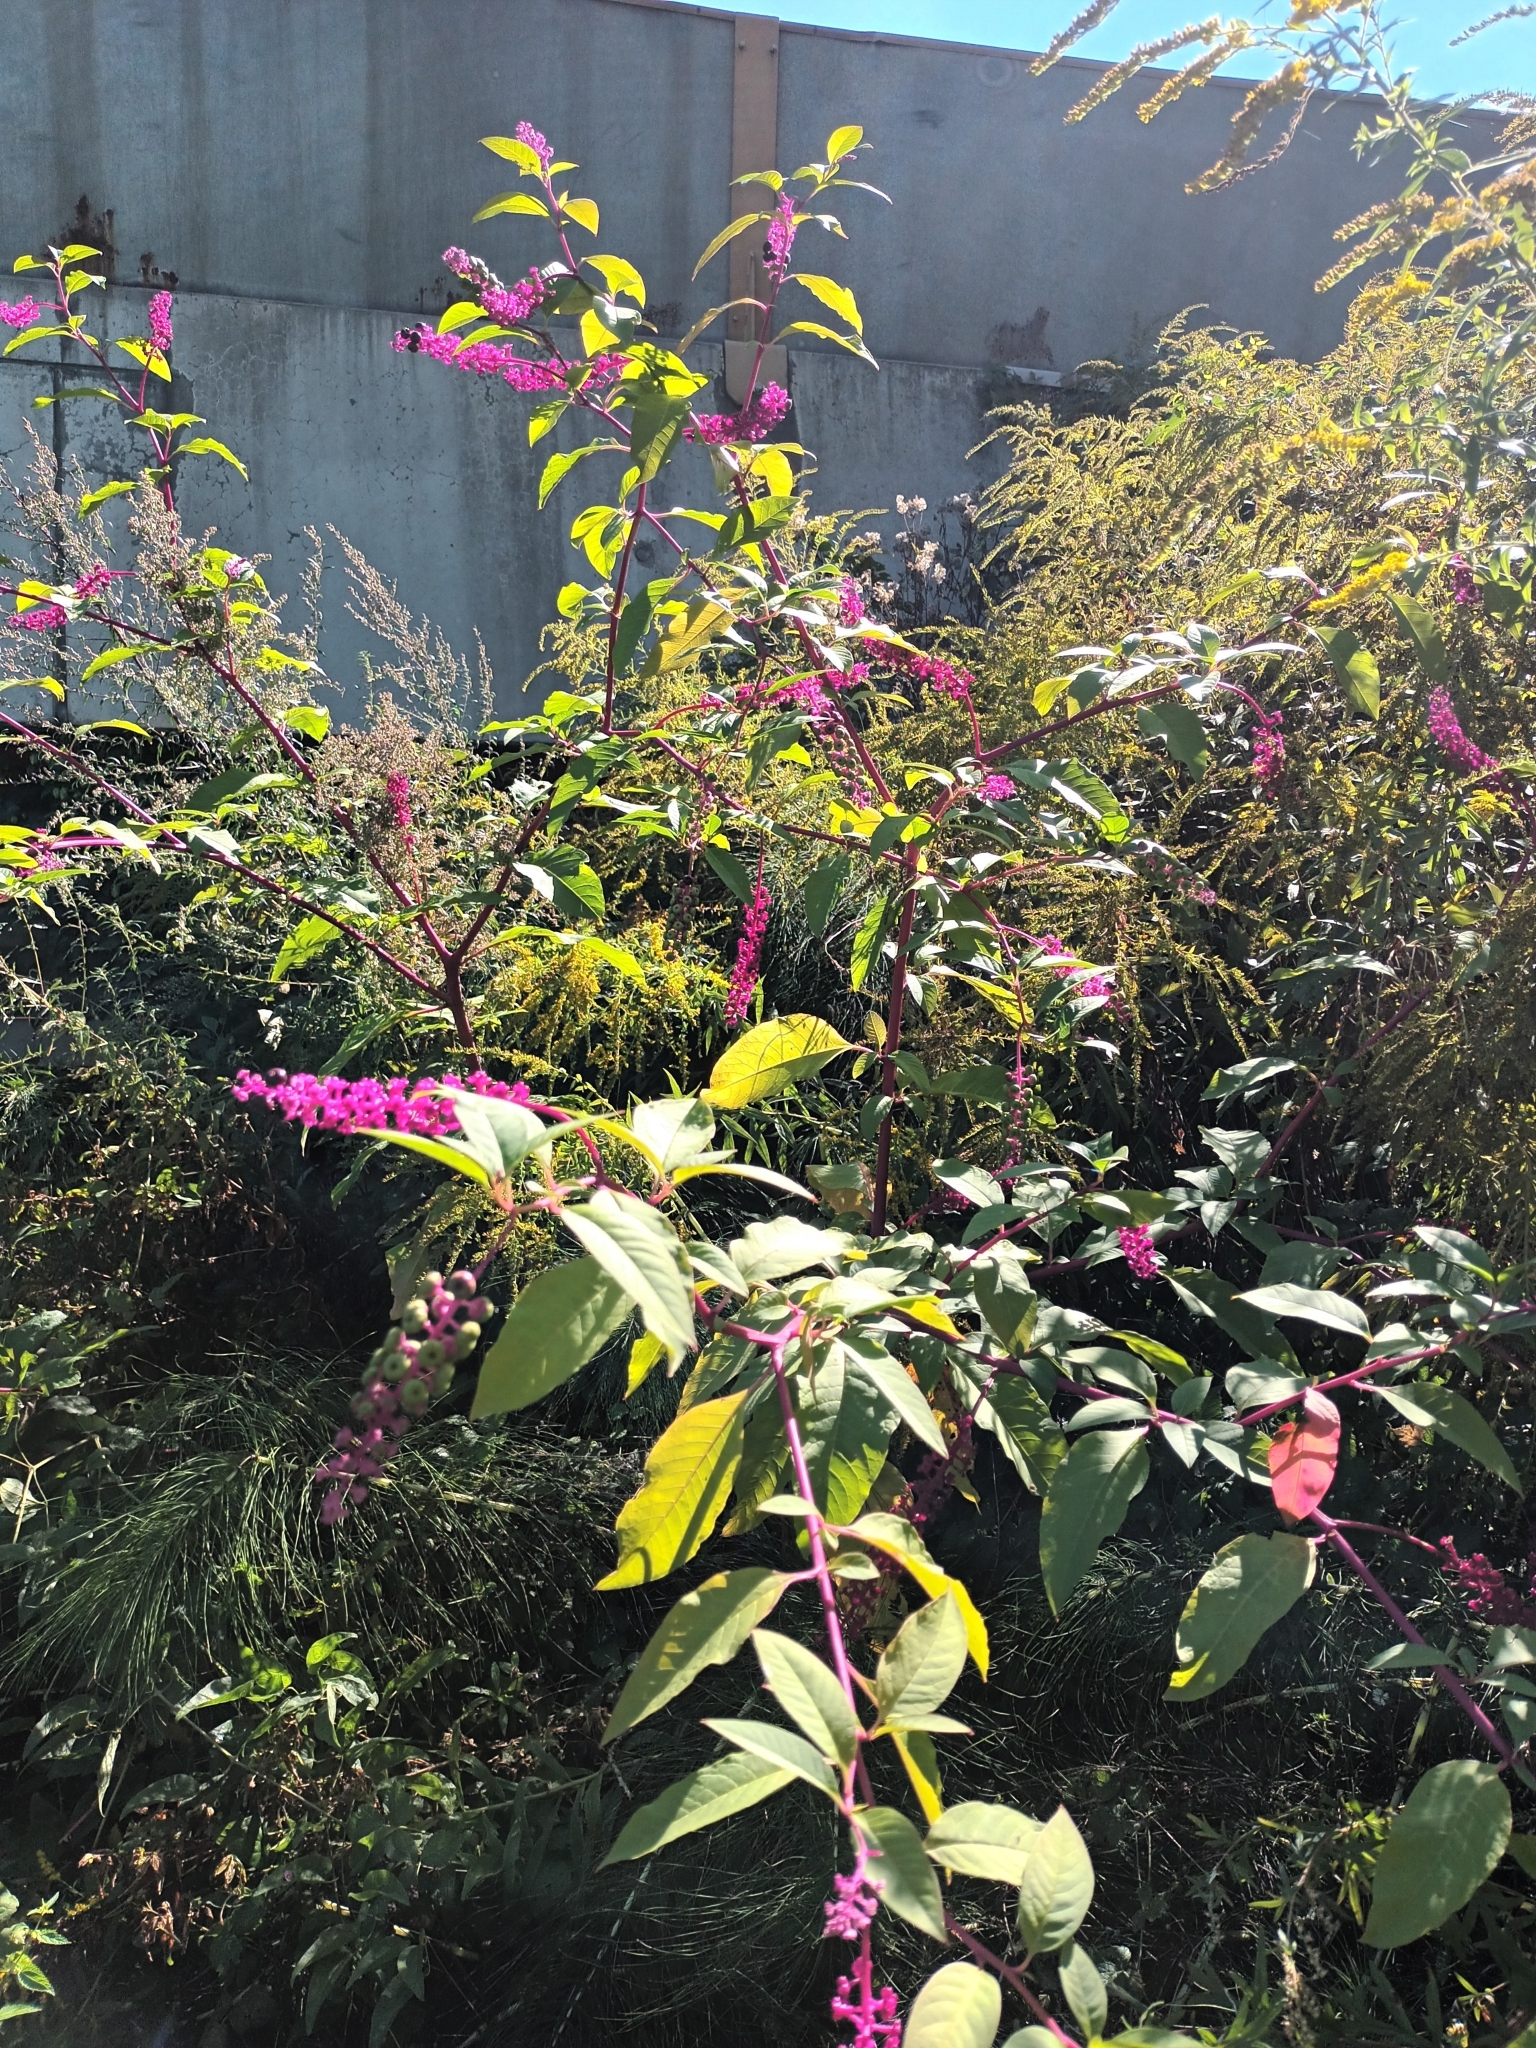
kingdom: Plantae
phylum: Tracheophyta
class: Magnoliopsida
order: Caryophyllales
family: Phytolaccaceae
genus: Phytolacca
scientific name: Phytolacca americana
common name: American pokeweed
